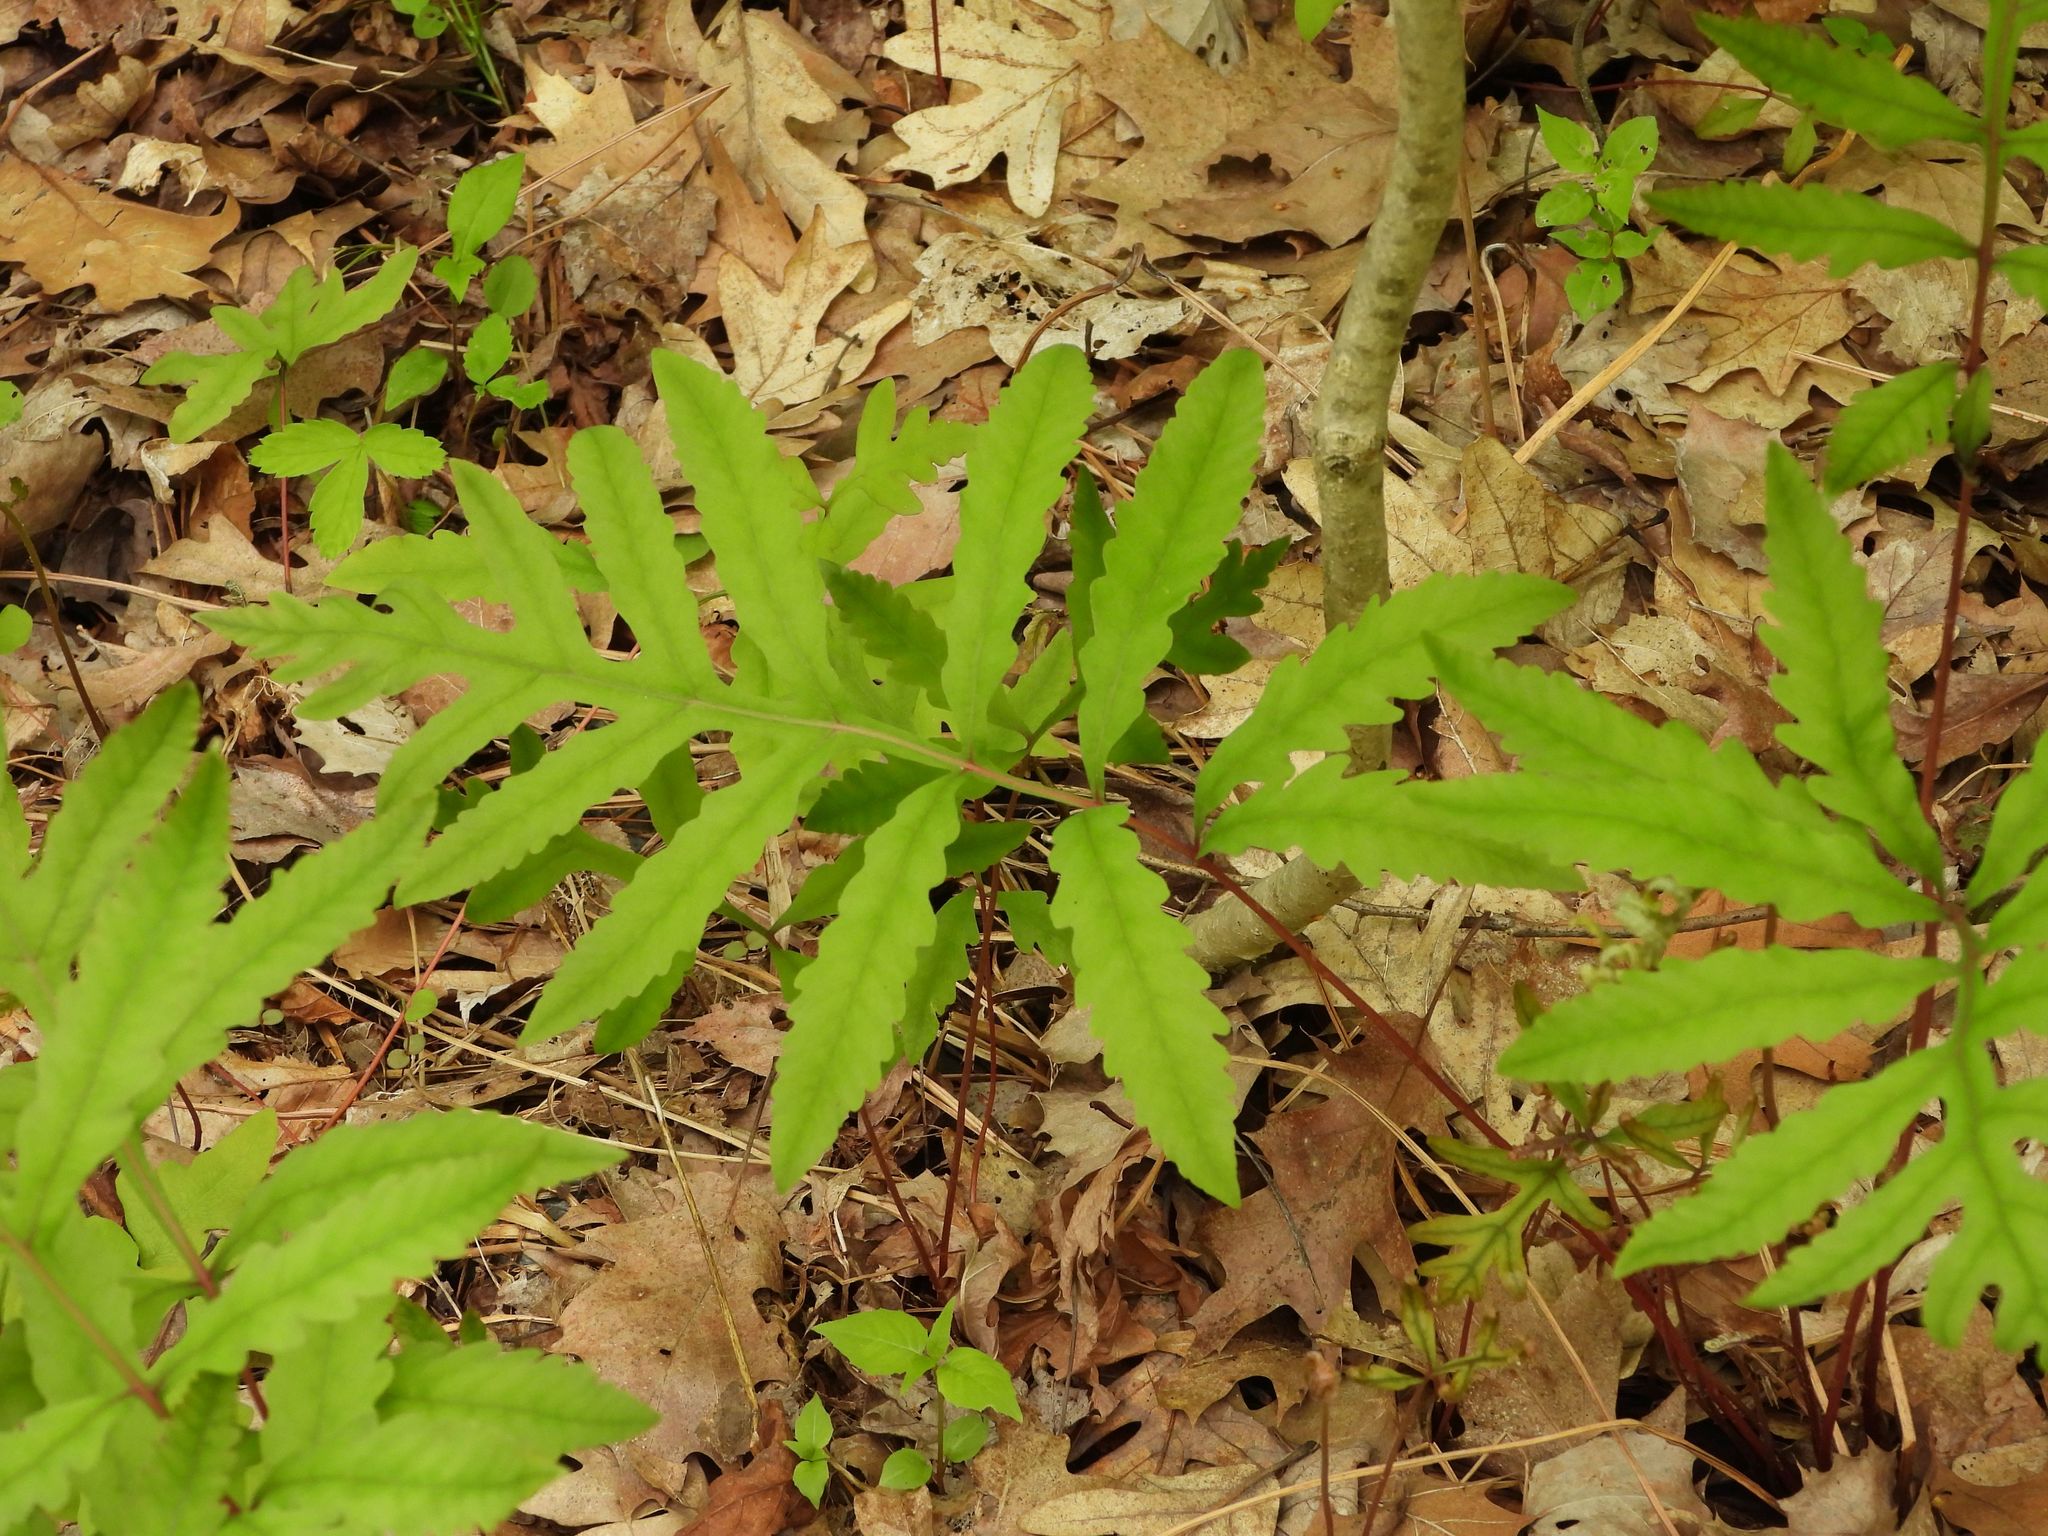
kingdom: Plantae
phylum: Tracheophyta
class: Polypodiopsida
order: Polypodiales
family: Onocleaceae
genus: Onoclea
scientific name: Onoclea sensibilis
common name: Sensitive fern
